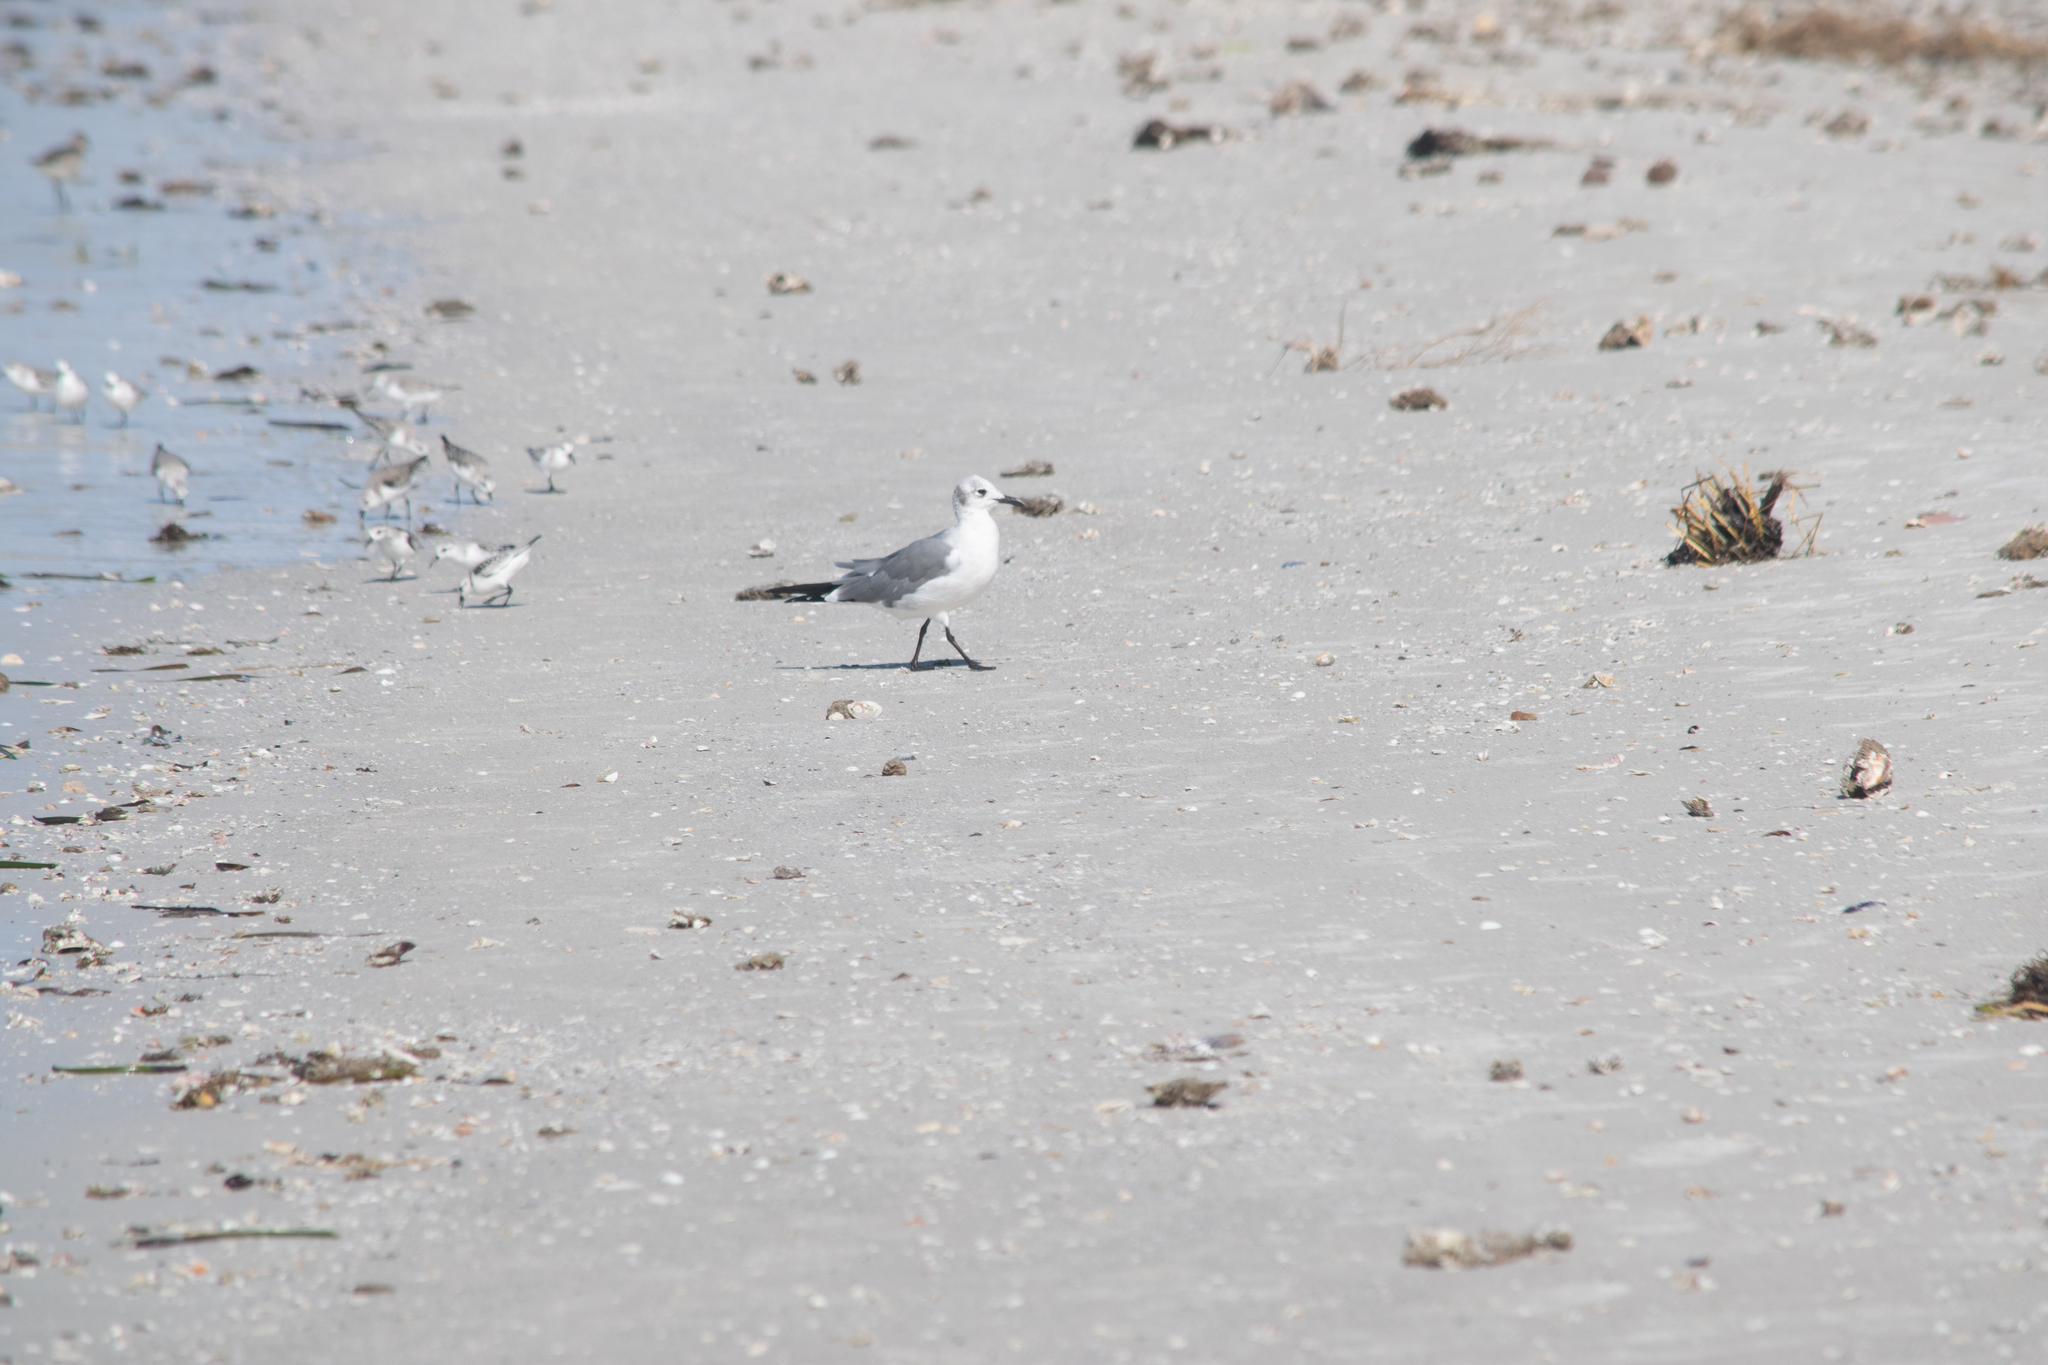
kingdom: Animalia
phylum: Chordata
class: Aves
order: Charadriiformes
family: Laridae
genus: Leucophaeus
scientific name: Leucophaeus atricilla
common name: Laughing gull
